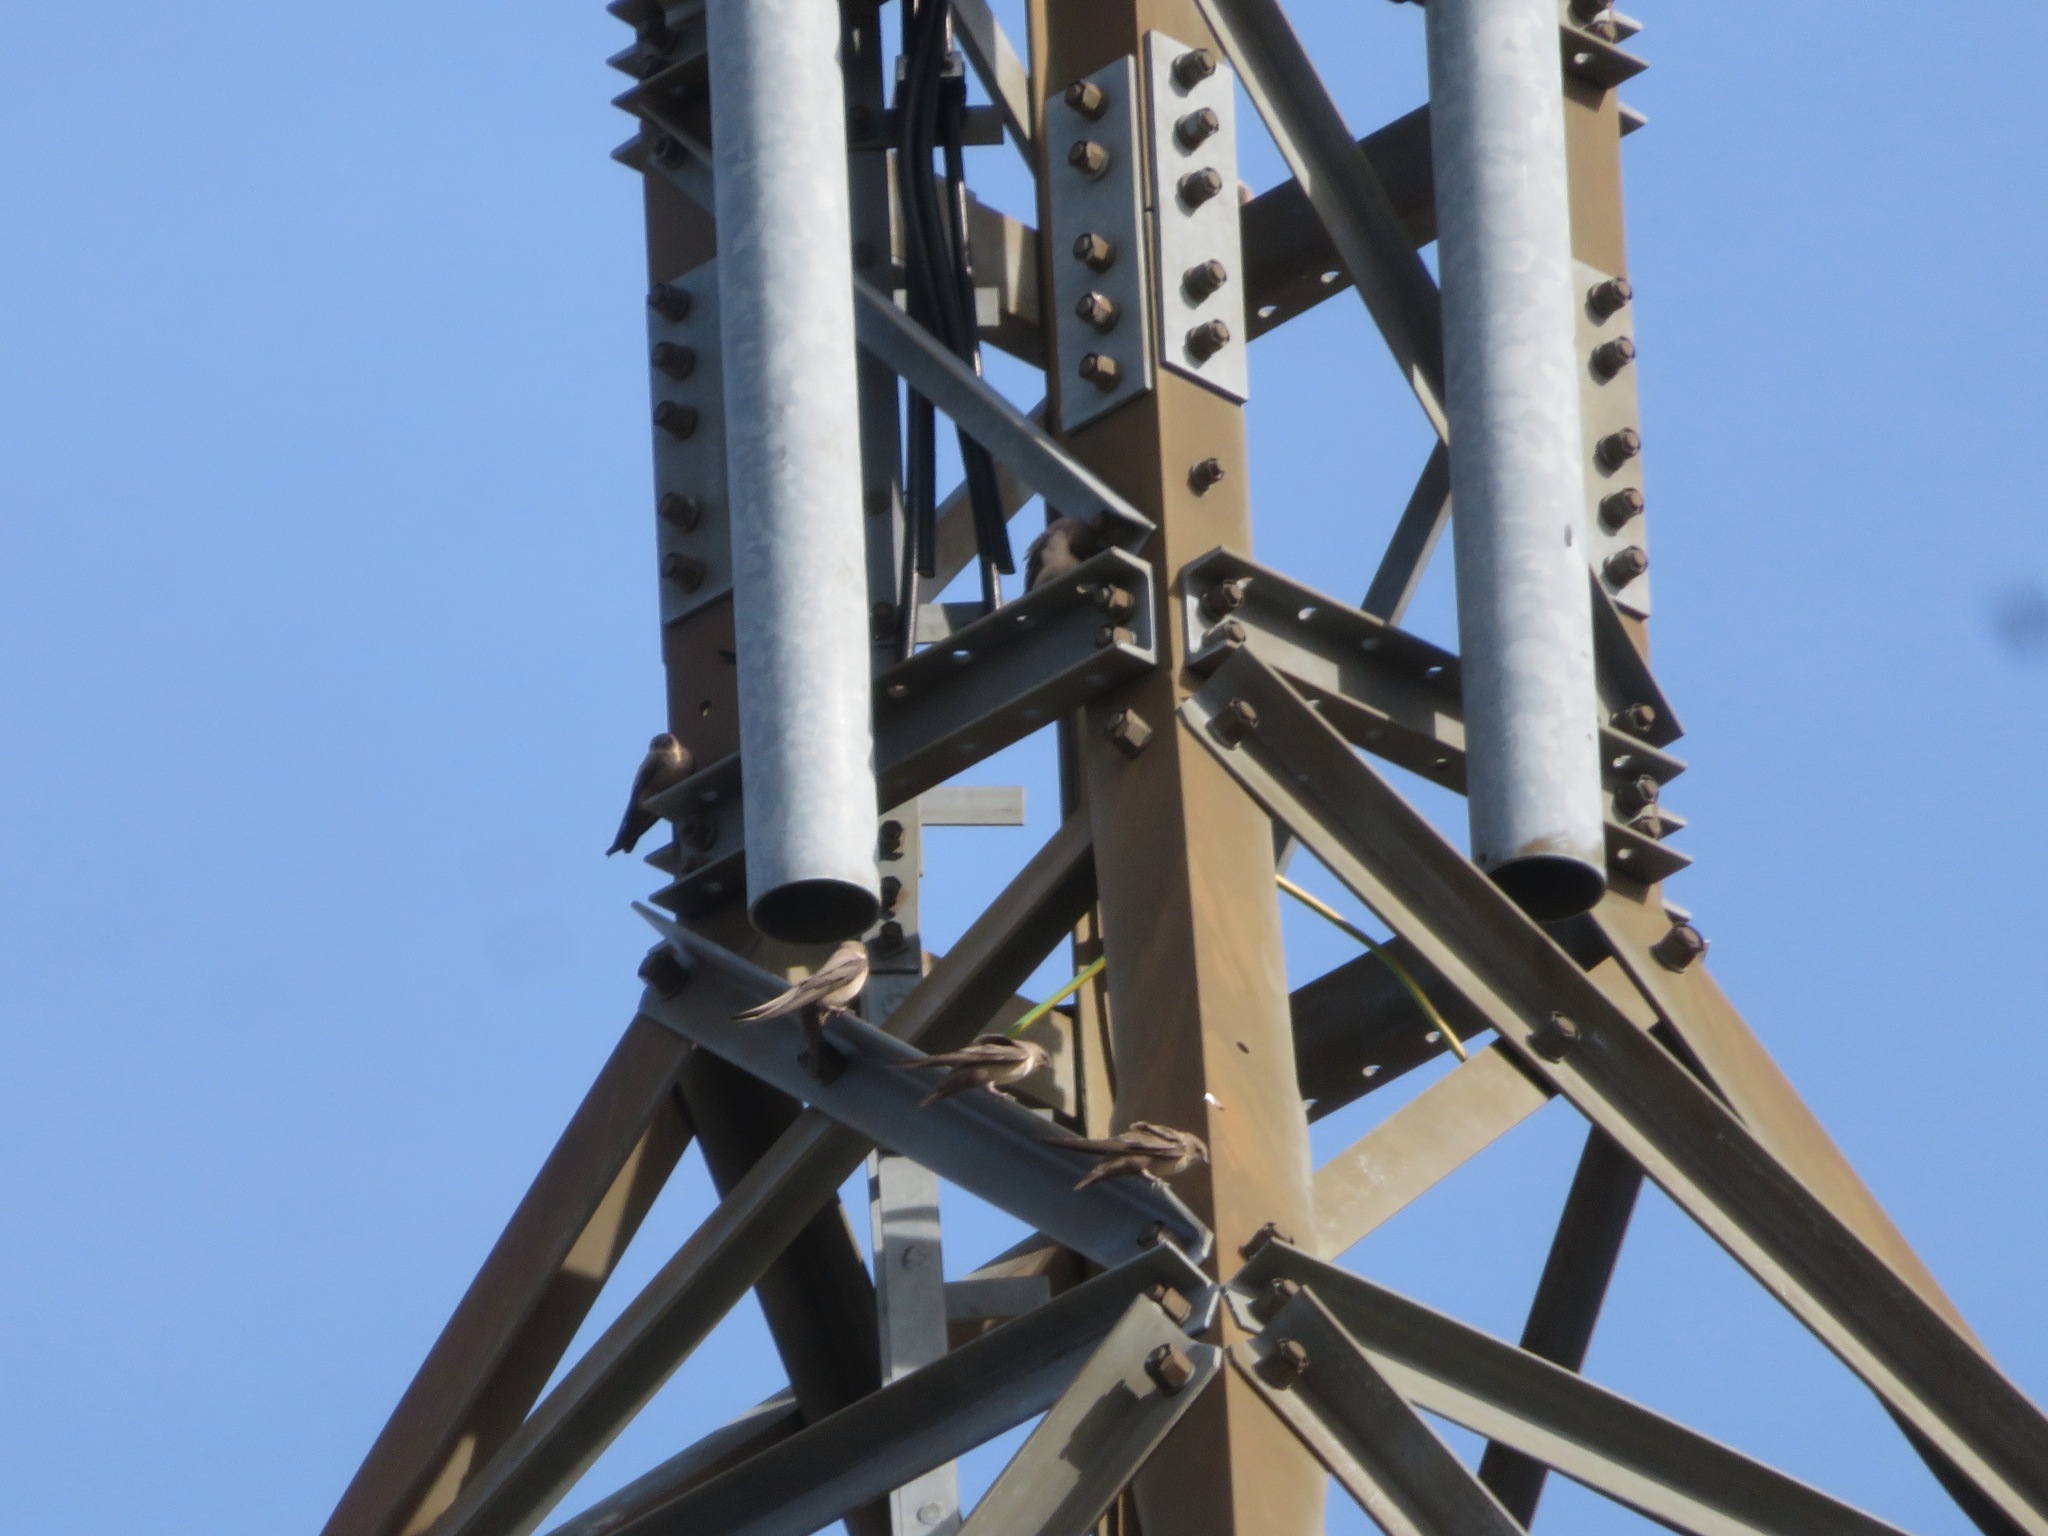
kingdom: Animalia
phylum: Chordata
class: Aves
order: Passeriformes
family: Hirundinidae
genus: Ptyonoprogne
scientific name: Ptyonoprogne rupestris
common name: Eurasian crag martin
